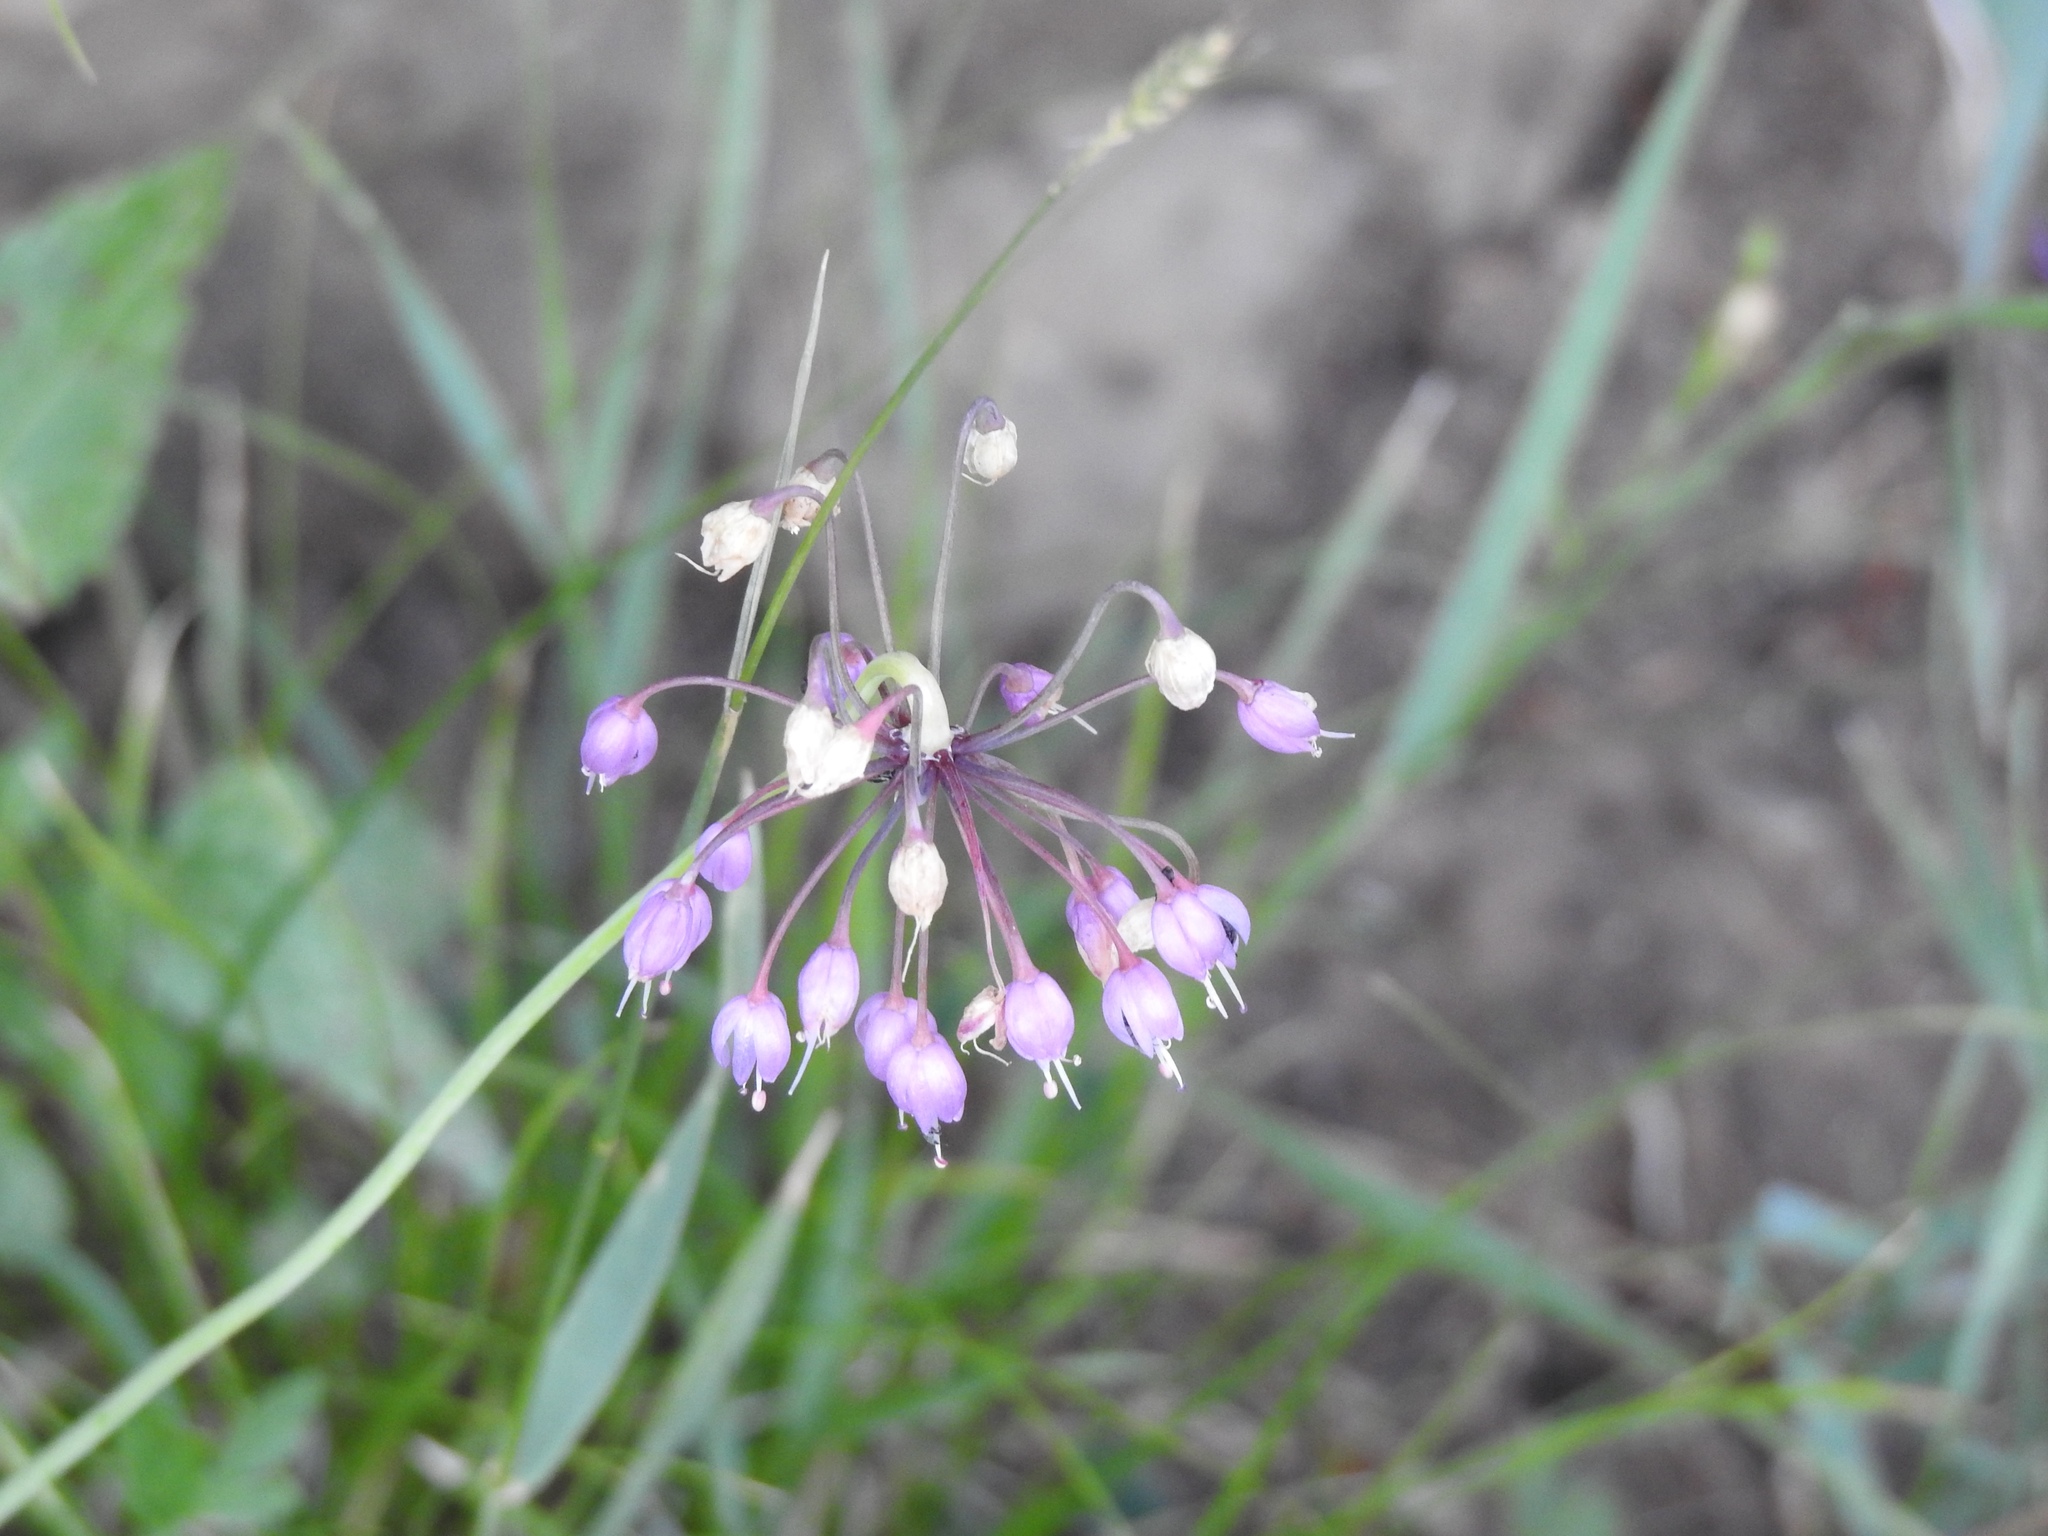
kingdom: Plantae
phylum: Tracheophyta
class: Liliopsida
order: Asparagales
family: Amaryllidaceae
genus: Allium
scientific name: Allium cernuum
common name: Nodding onion
